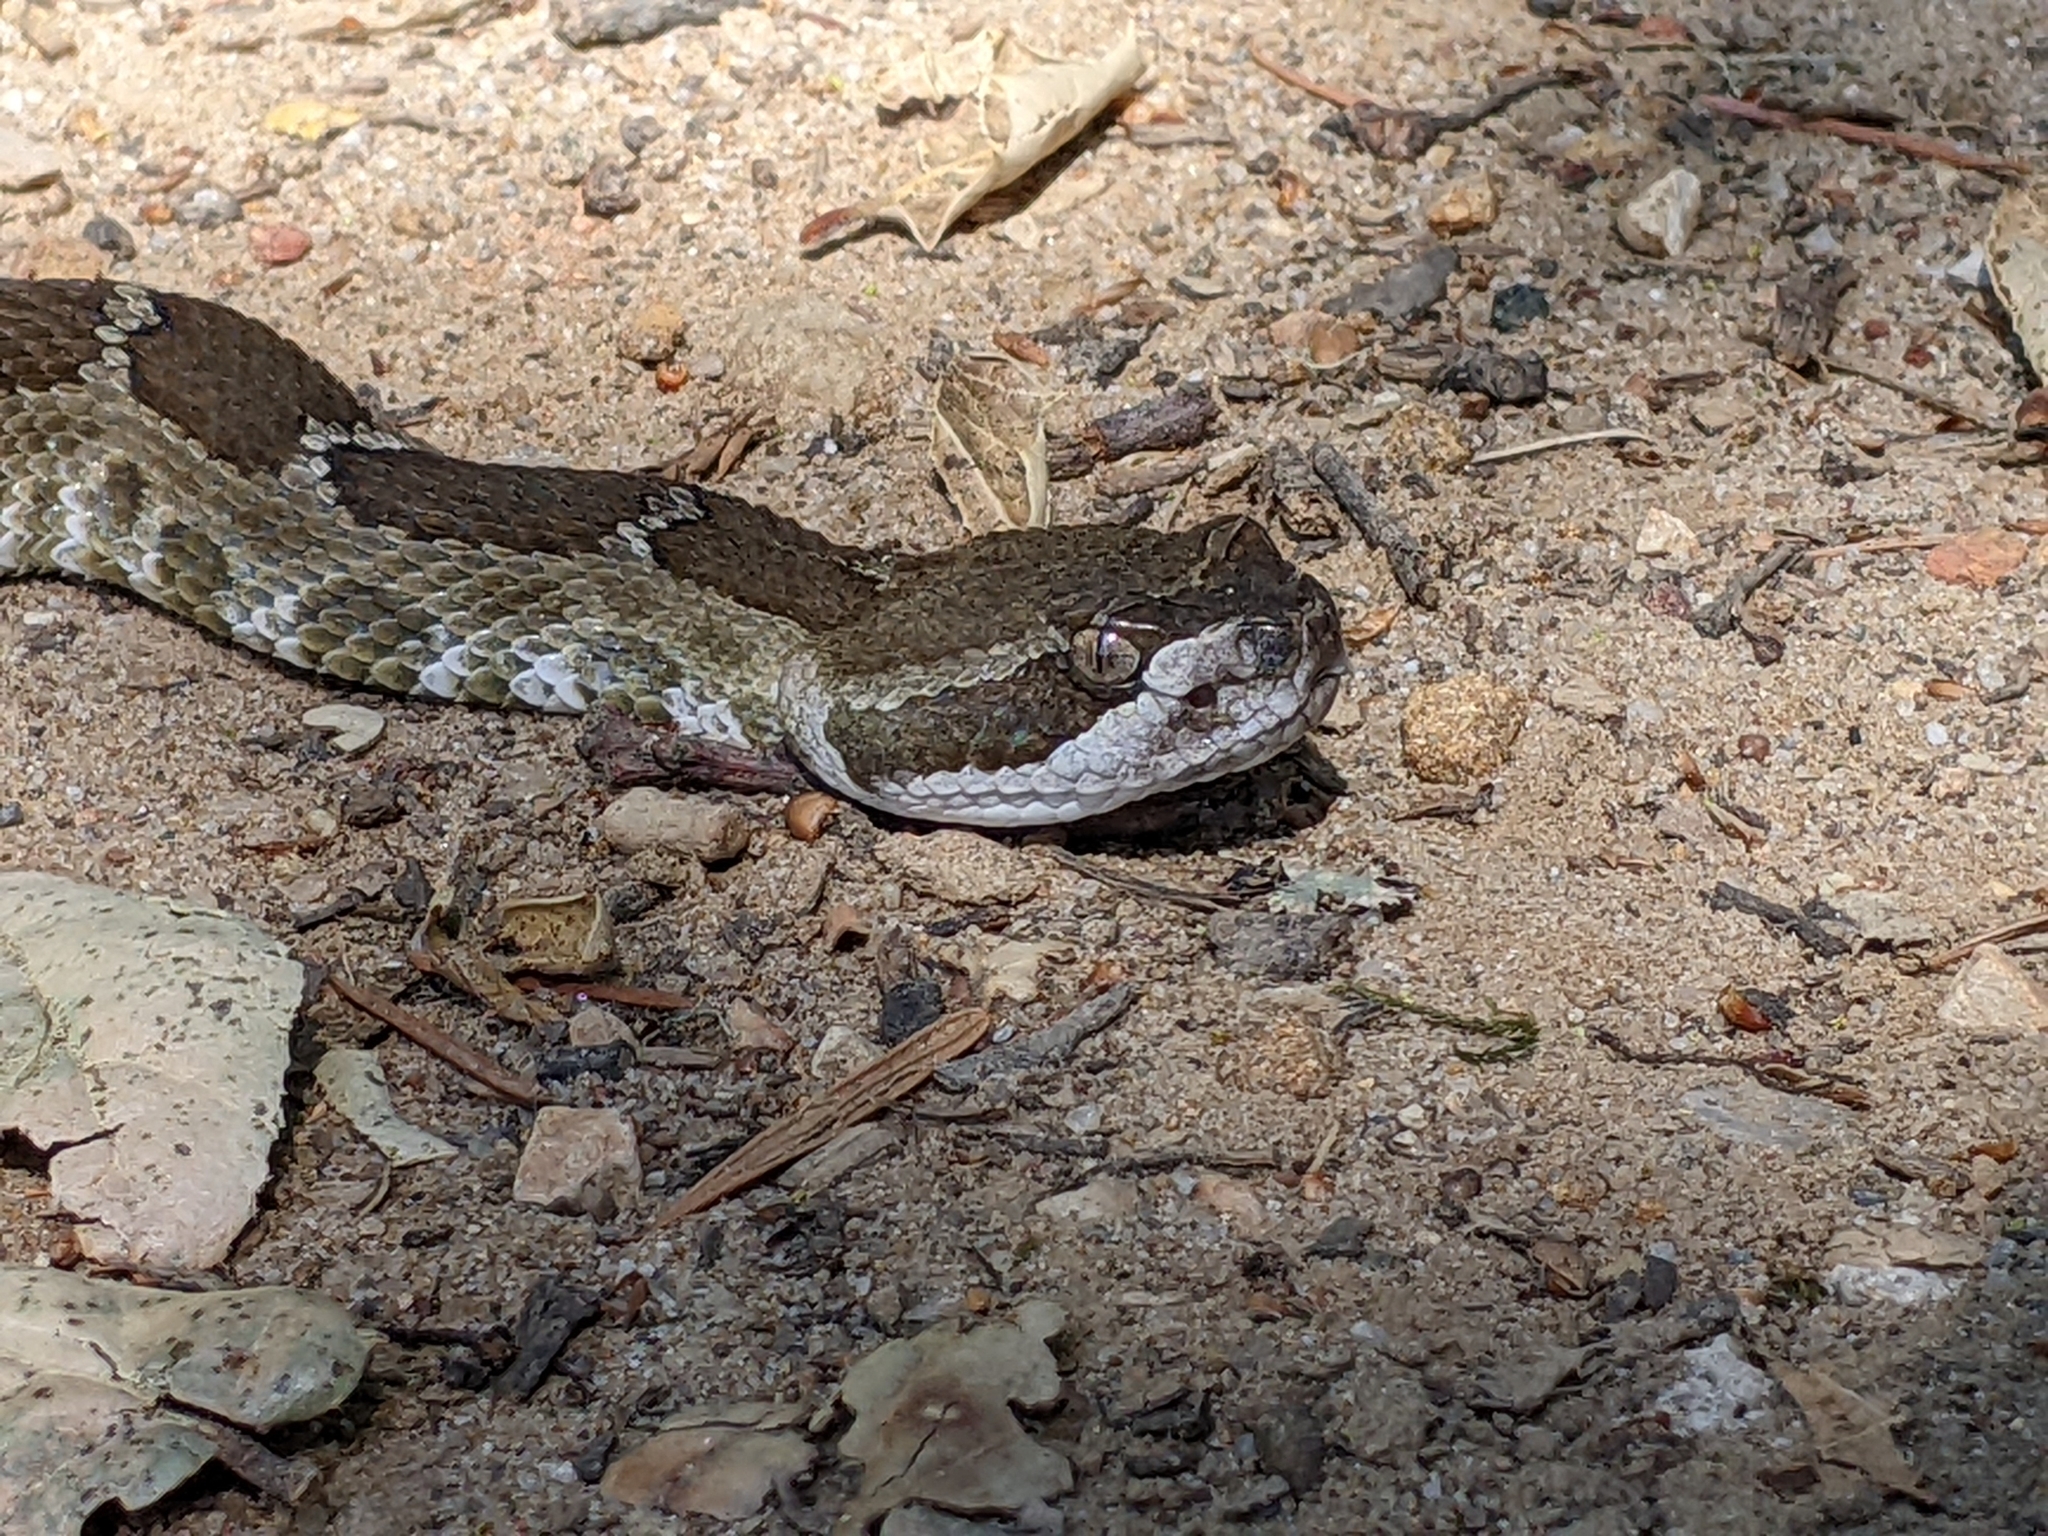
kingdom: Animalia
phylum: Chordata
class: Squamata
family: Viperidae
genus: Crotalus
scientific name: Crotalus oreganus
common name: Abyssus
